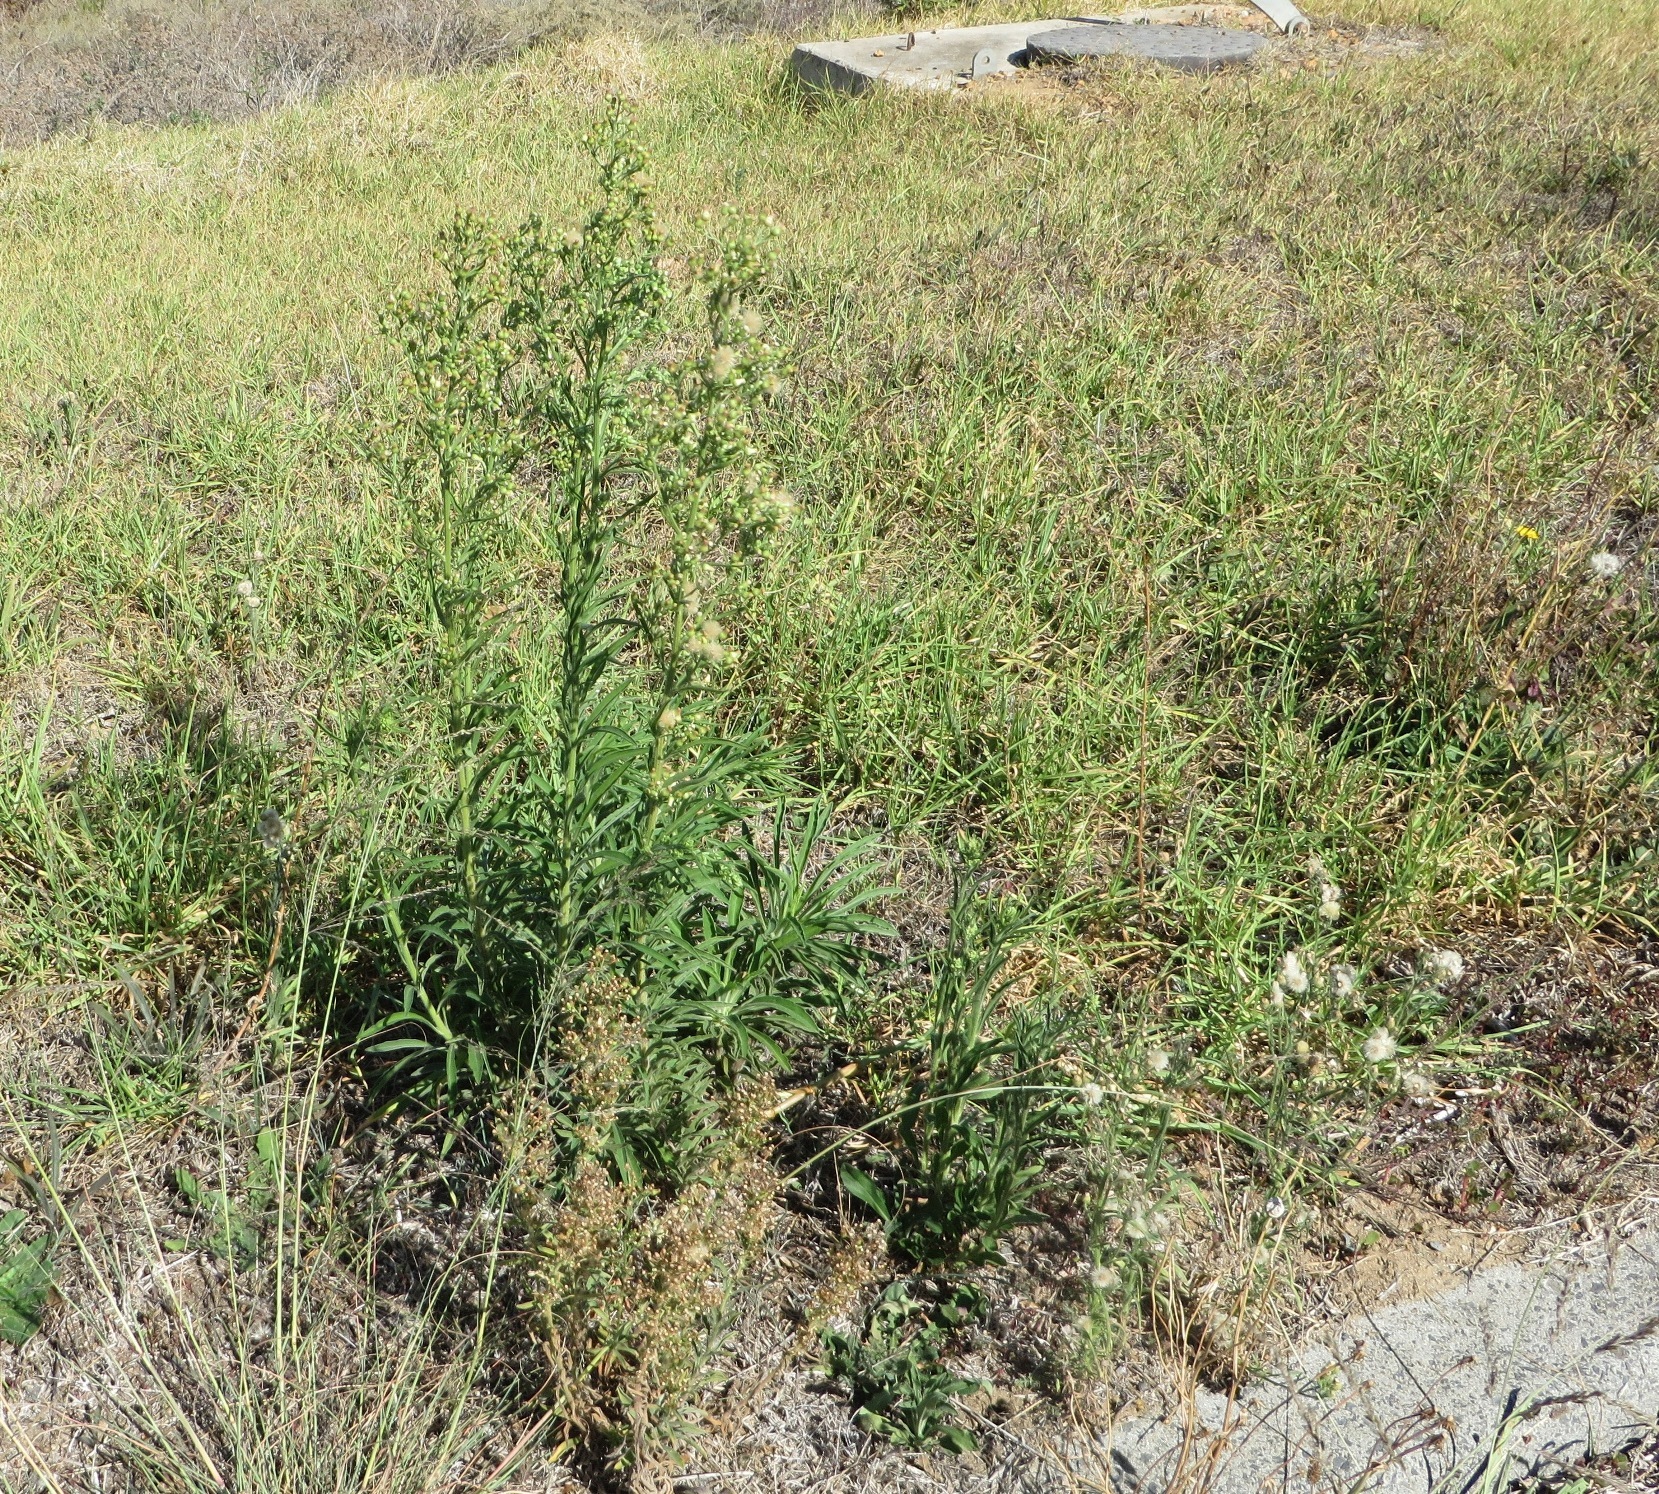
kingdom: Plantae
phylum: Tracheophyta
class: Magnoliopsida
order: Asterales
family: Asteraceae
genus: Erigeron
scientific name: Erigeron sumatrensis
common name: Daisy
